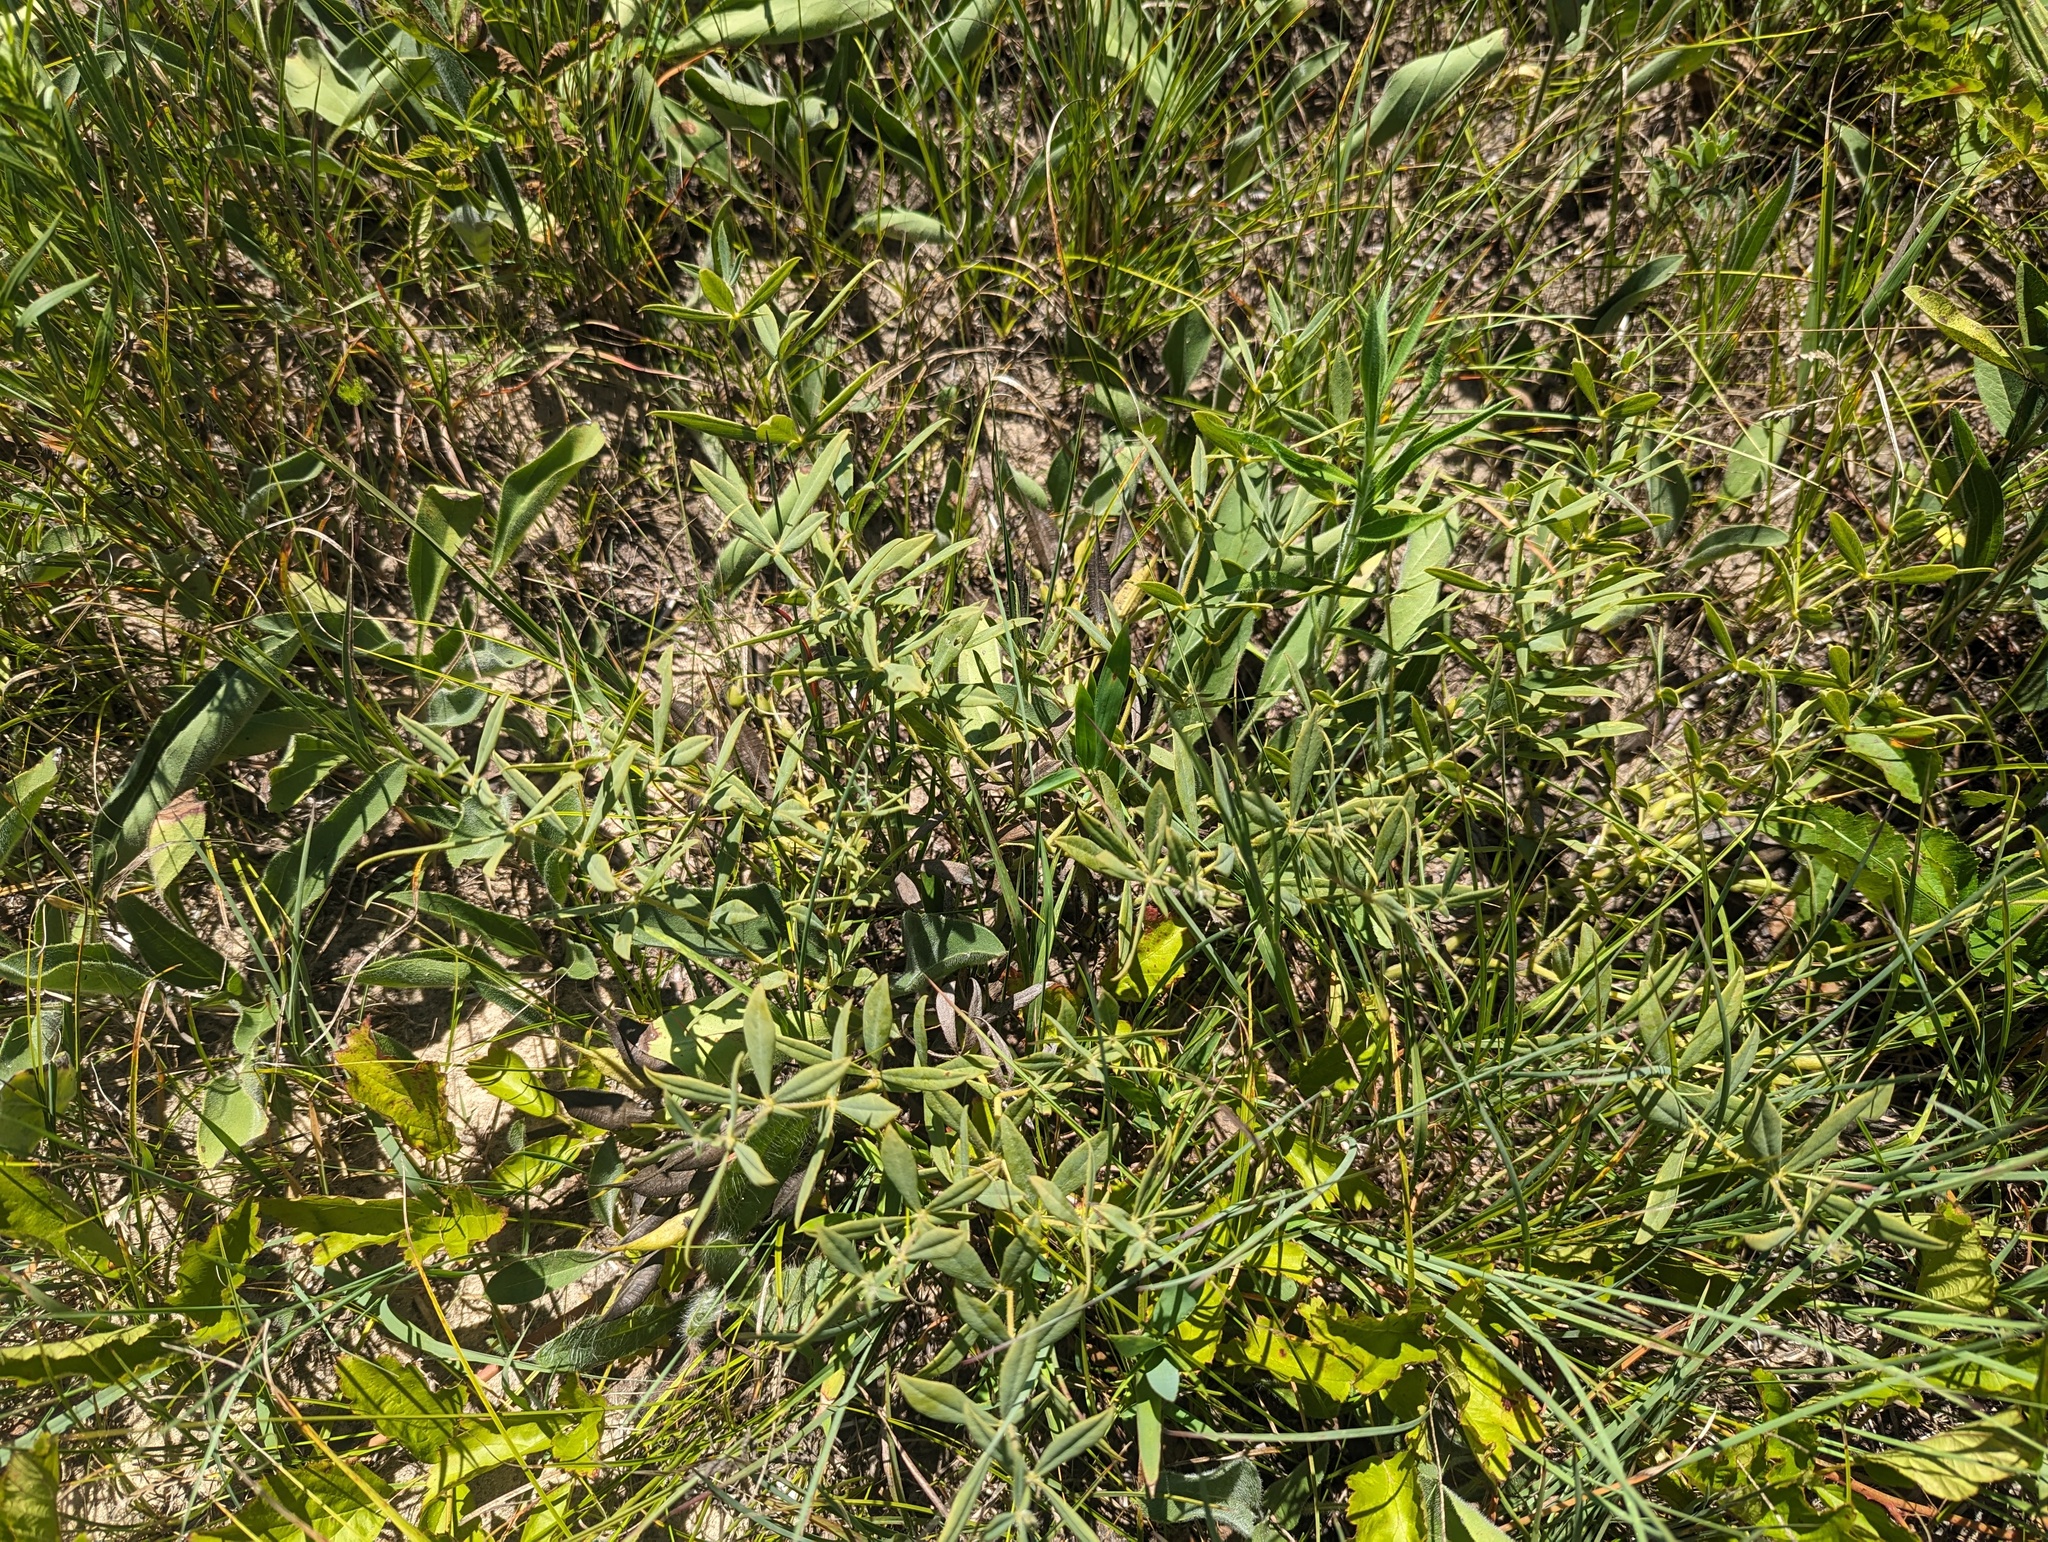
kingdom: Plantae
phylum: Tracheophyta
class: Magnoliopsida
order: Fabales
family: Fabaceae
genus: Baptisia
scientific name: Baptisia bracteata
